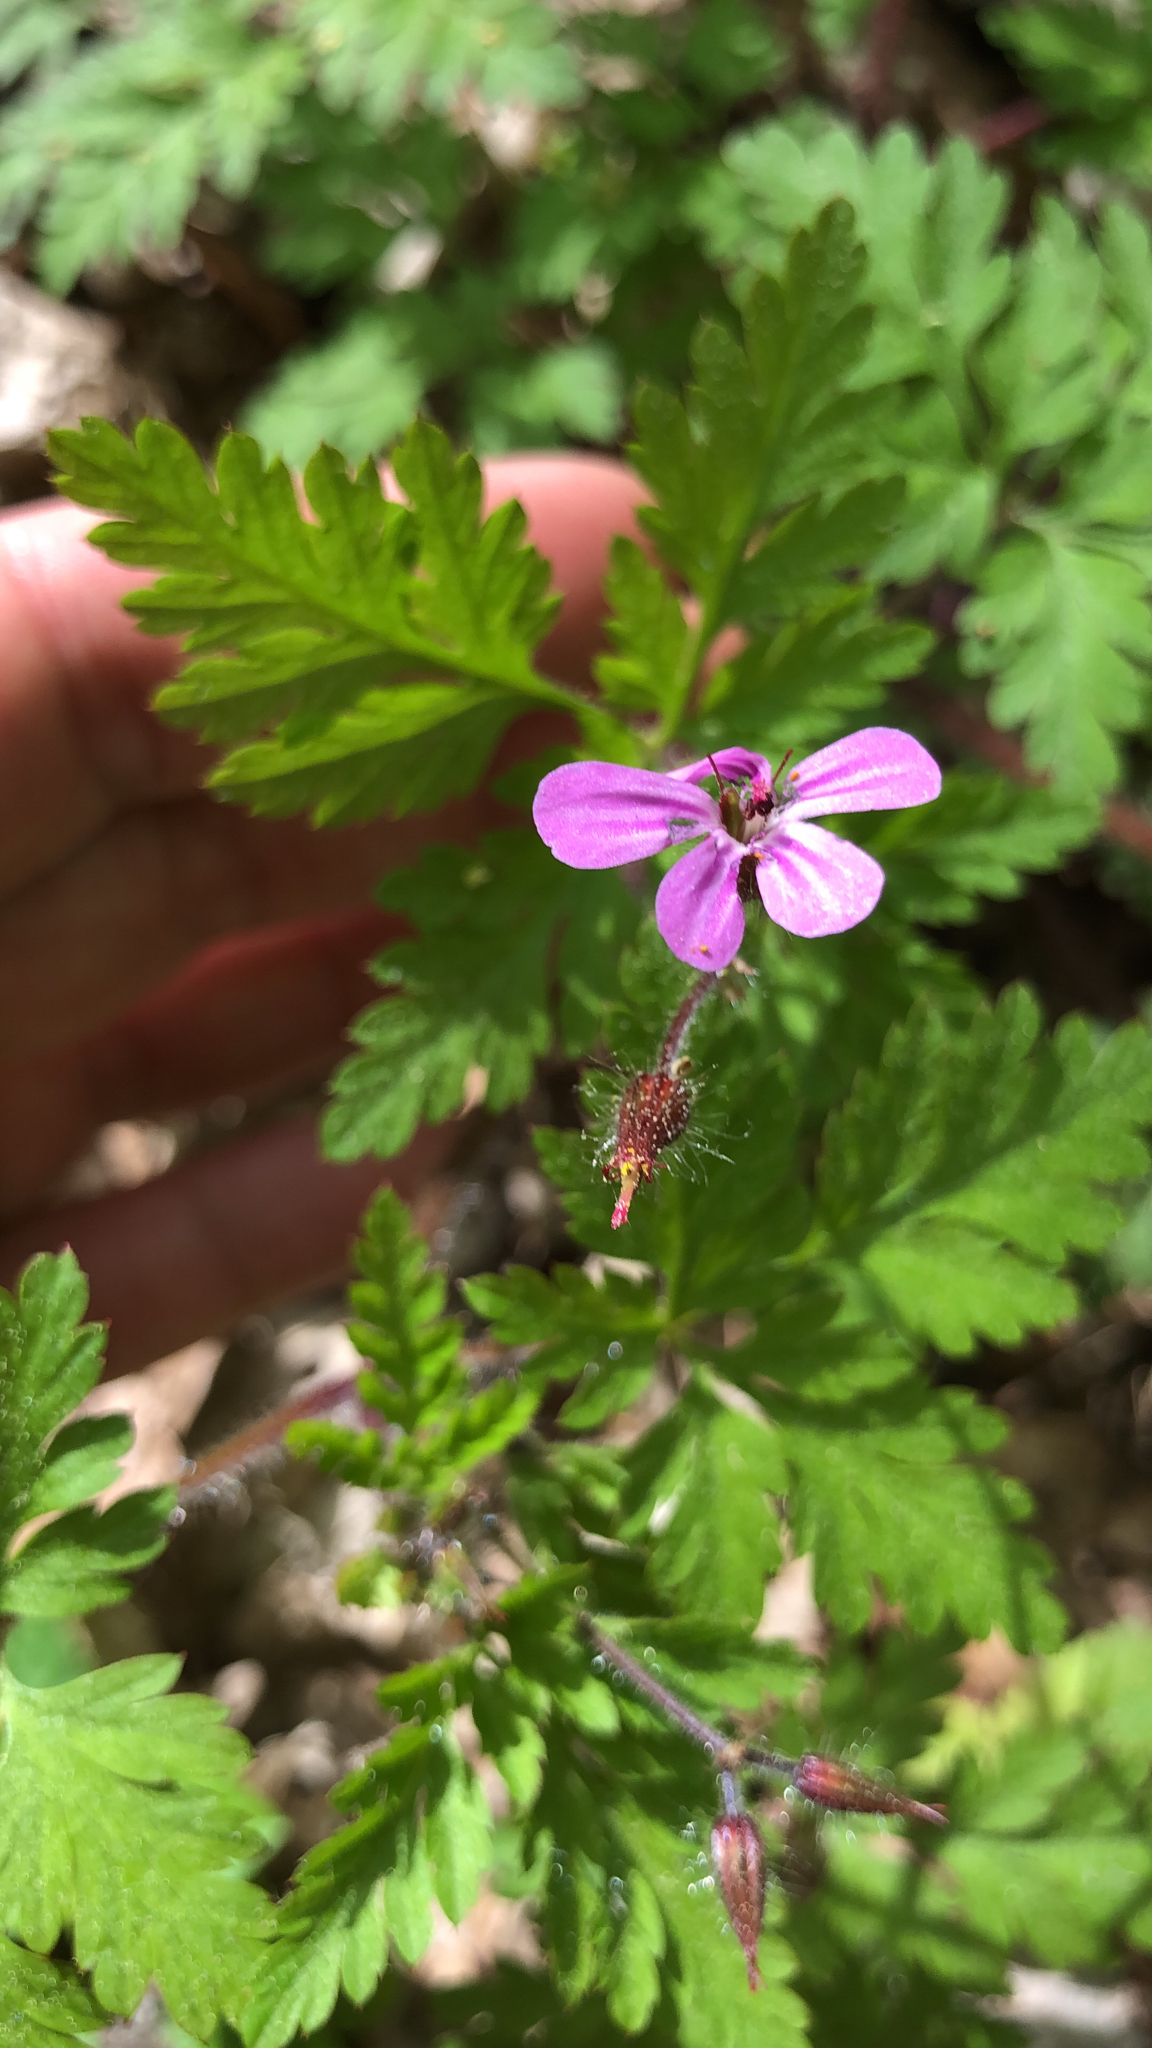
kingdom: Plantae
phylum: Tracheophyta
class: Magnoliopsida
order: Geraniales
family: Geraniaceae
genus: Geranium
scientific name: Geranium robertianum
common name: Herb-robert
